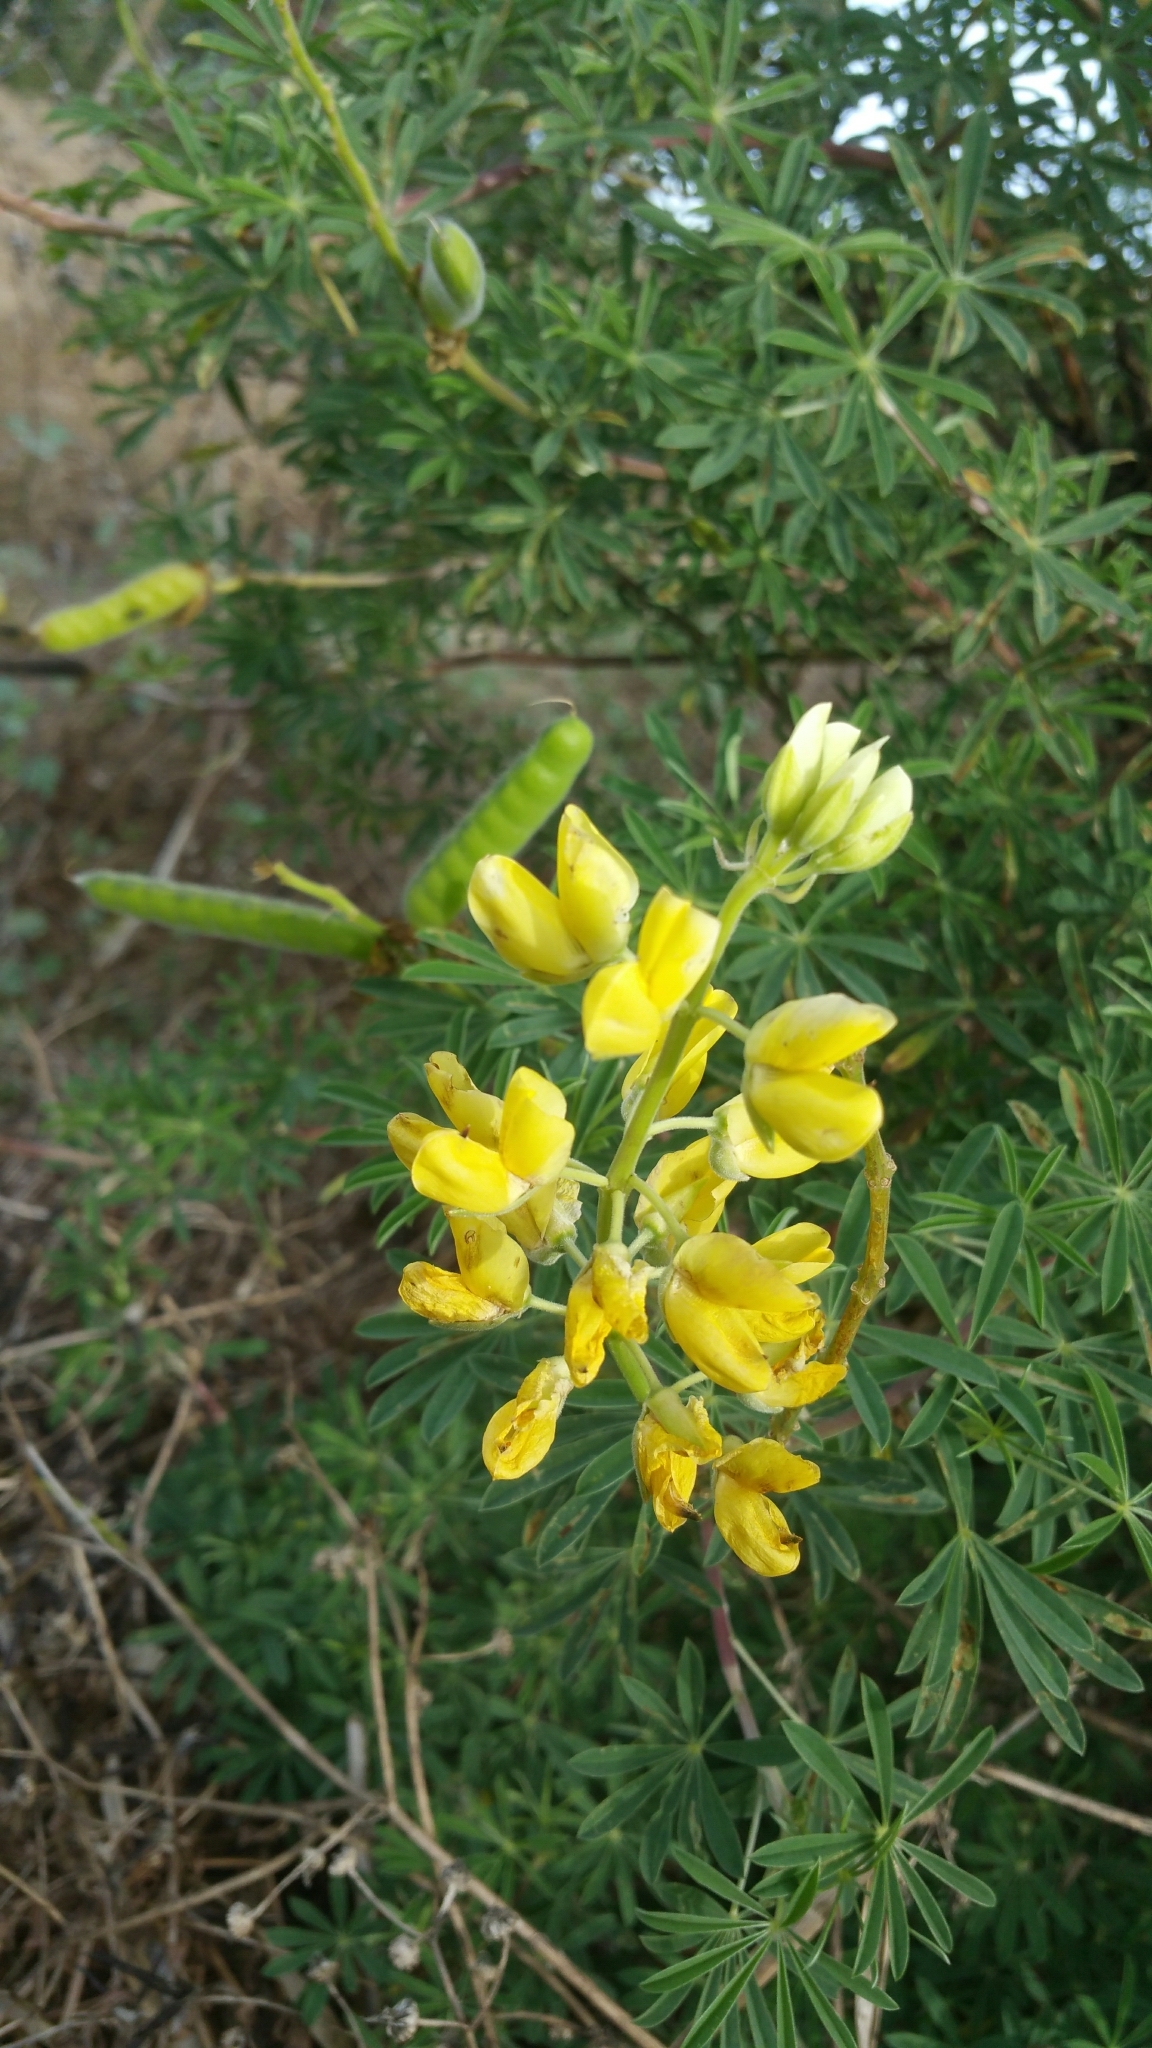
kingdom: Plantae
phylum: Tracheophyta
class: Magnoliopsida
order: Fabales
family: Fabaceae
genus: Lupinus
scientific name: Lupinus arboreus
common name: Yellow bush lupine
